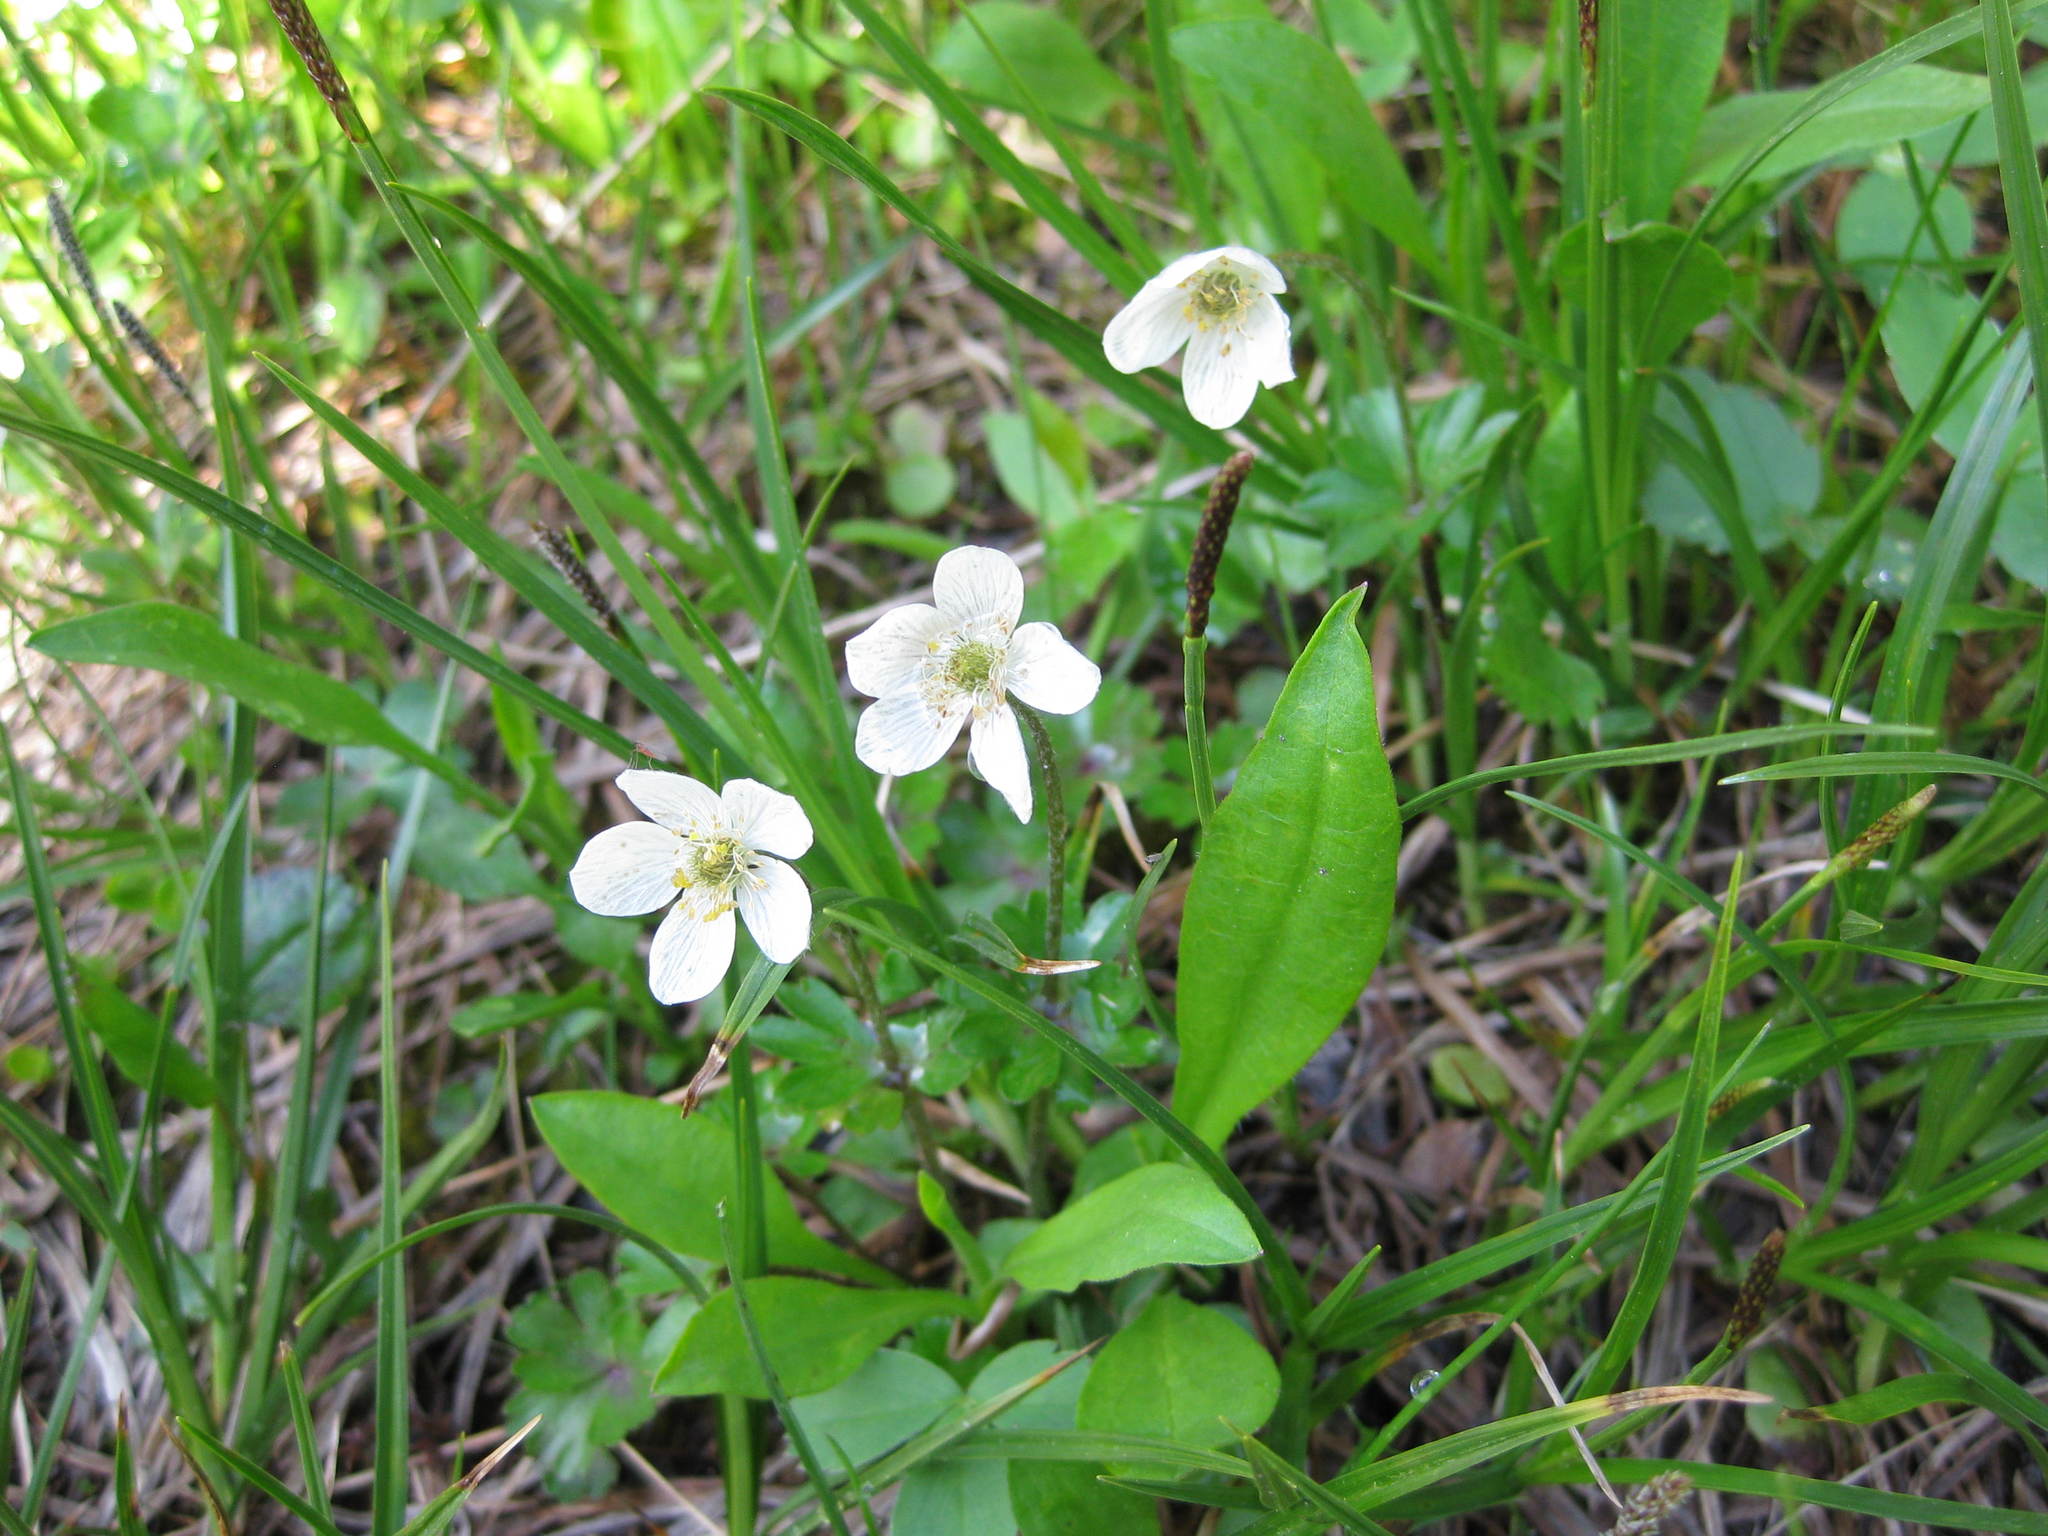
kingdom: Plantae
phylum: Tracheophyta
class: Magnoliopsida
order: Ranunculales
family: Ranunculaceae
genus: Anemone
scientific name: Anemone parviflora
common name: Northern anemone
